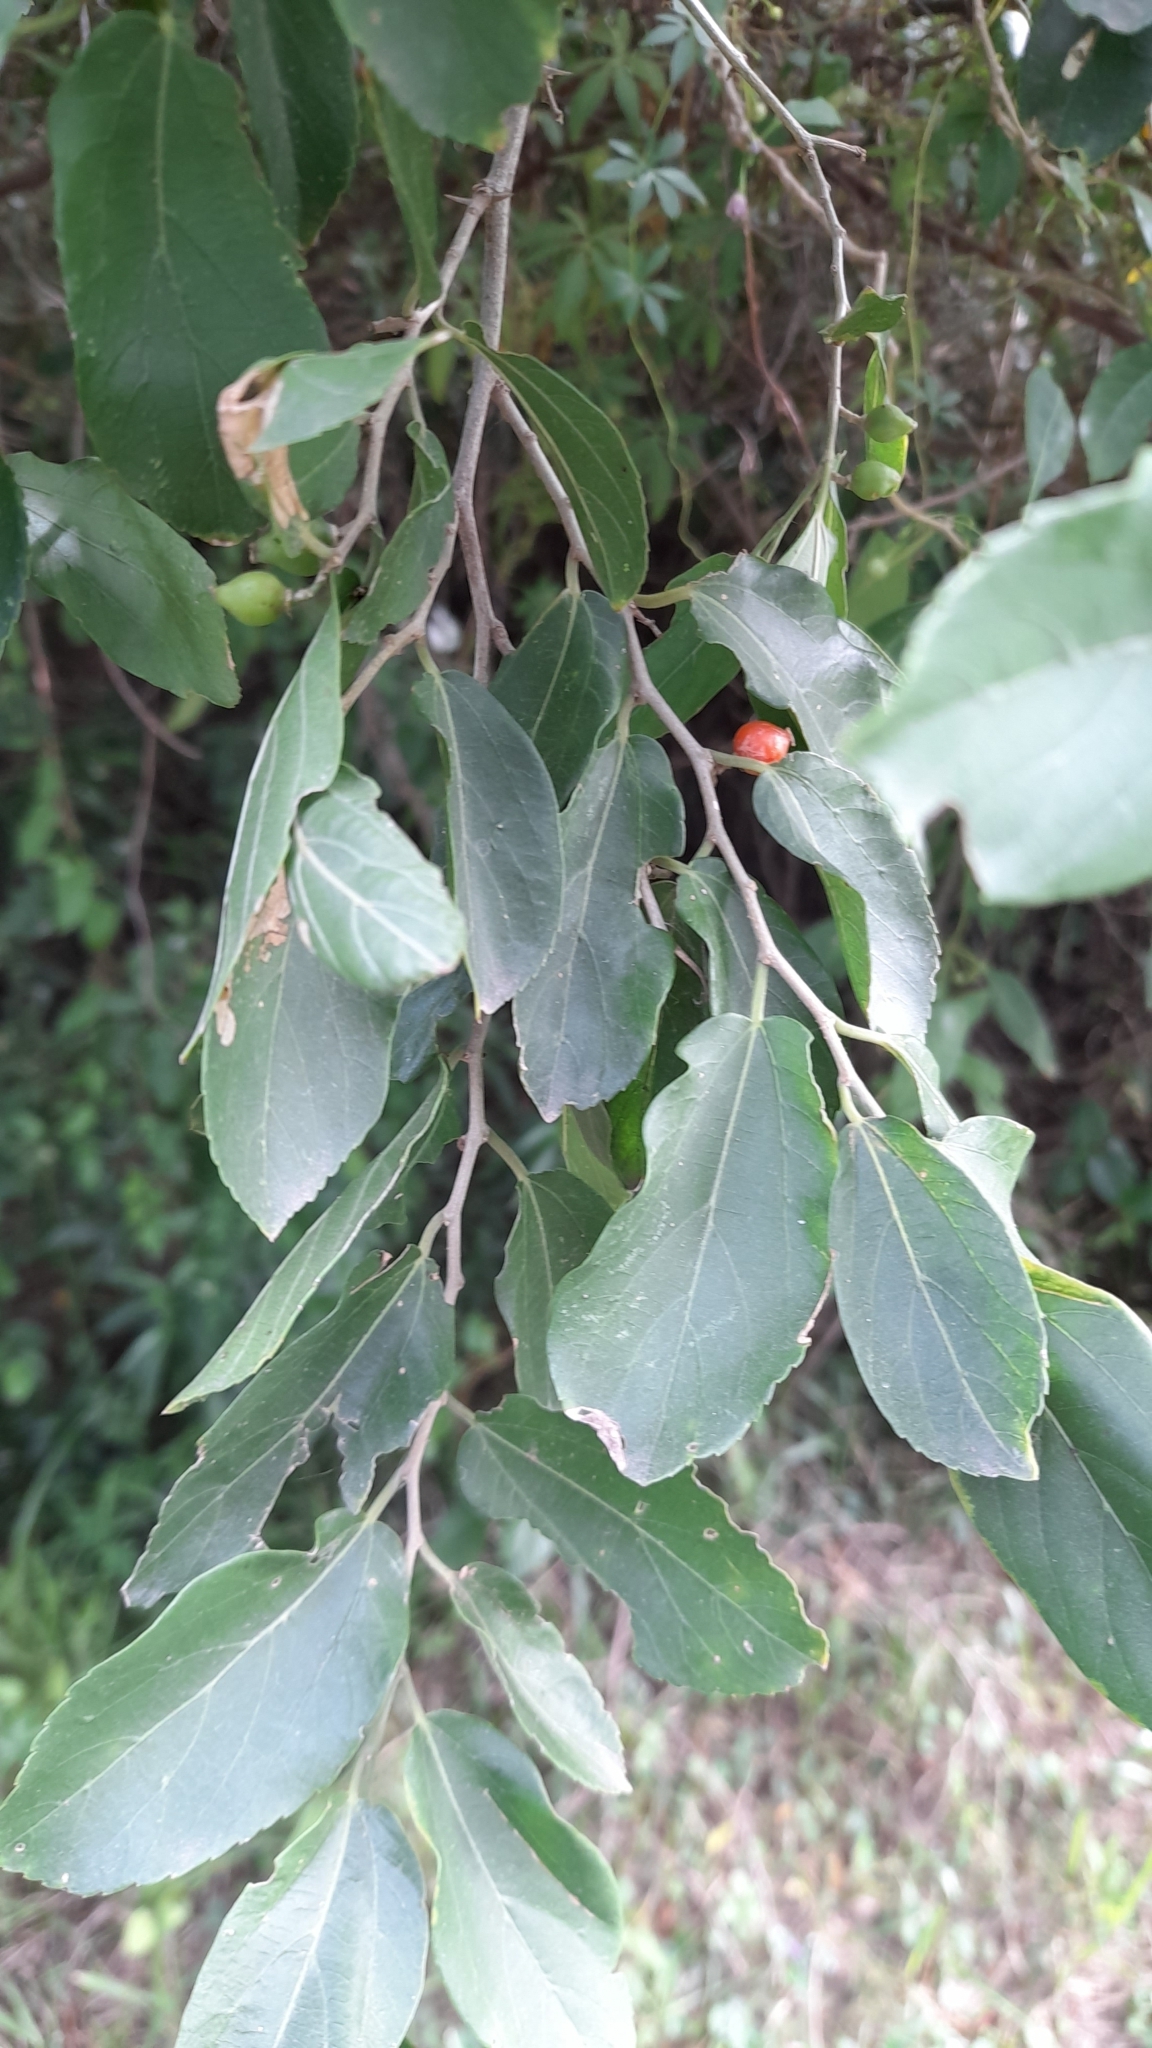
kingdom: Plantae
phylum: Tracheophyta
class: Magnoliopsida
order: Rosales
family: Cannabaceae
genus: Celtis
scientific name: Celtis iguanaea
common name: Iguana hackberry
